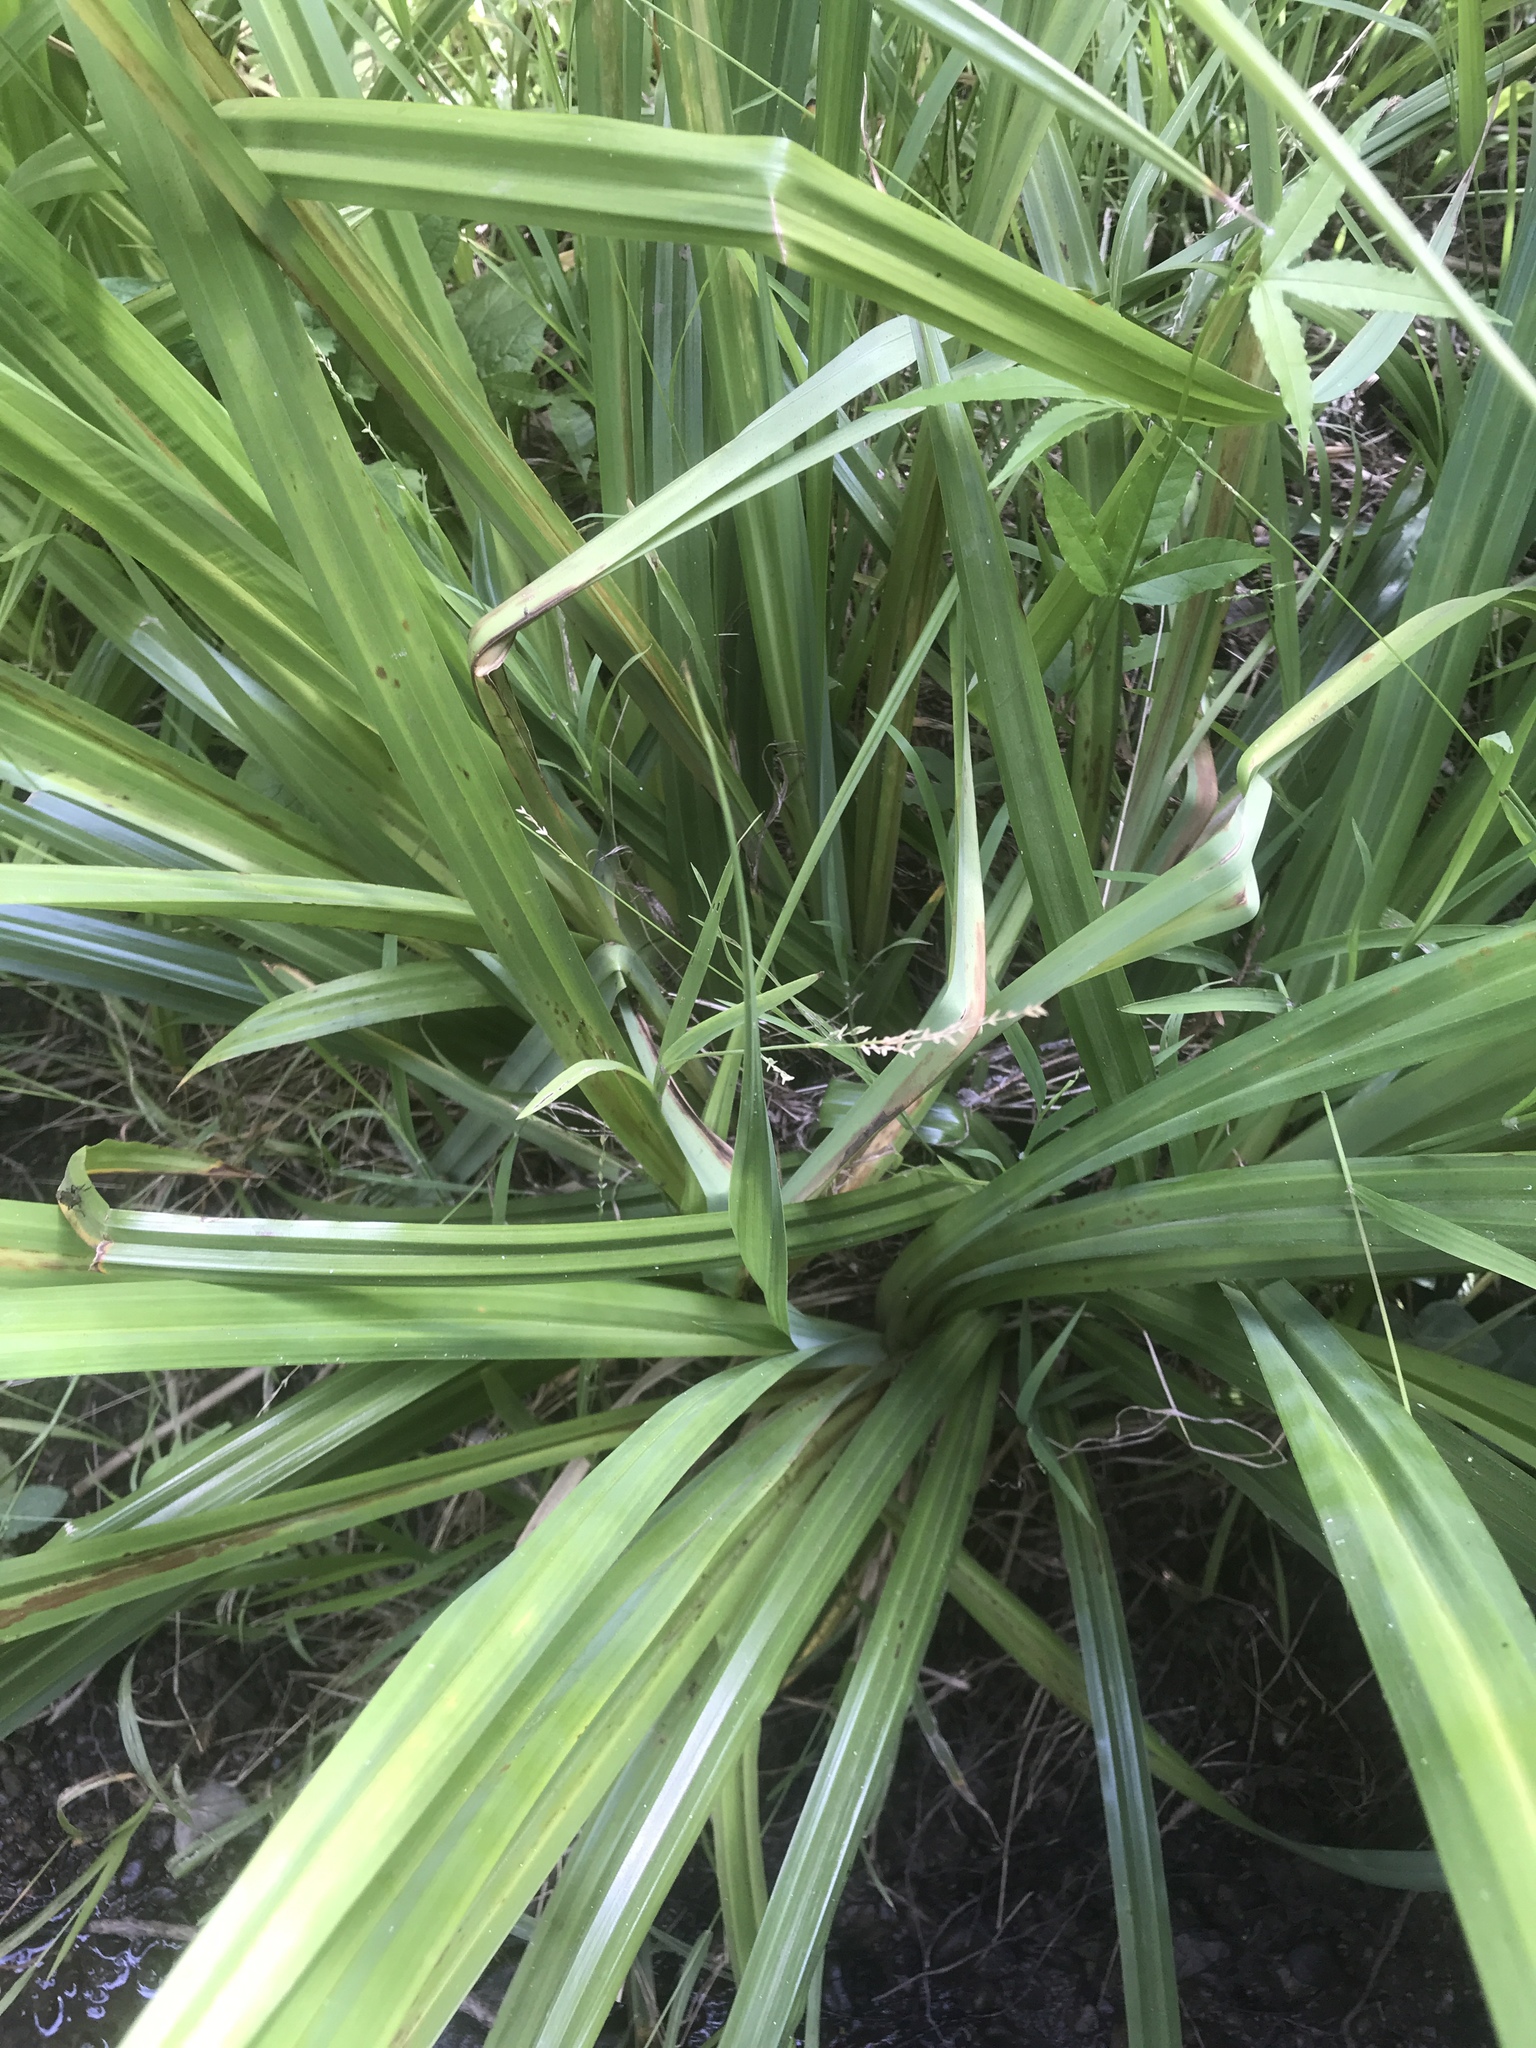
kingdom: Plantae
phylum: Tracheophyta
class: Liliopsida
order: Poales
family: Cyperaceae
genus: Carex
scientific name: Carex pendula
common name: Pendulous sedge
